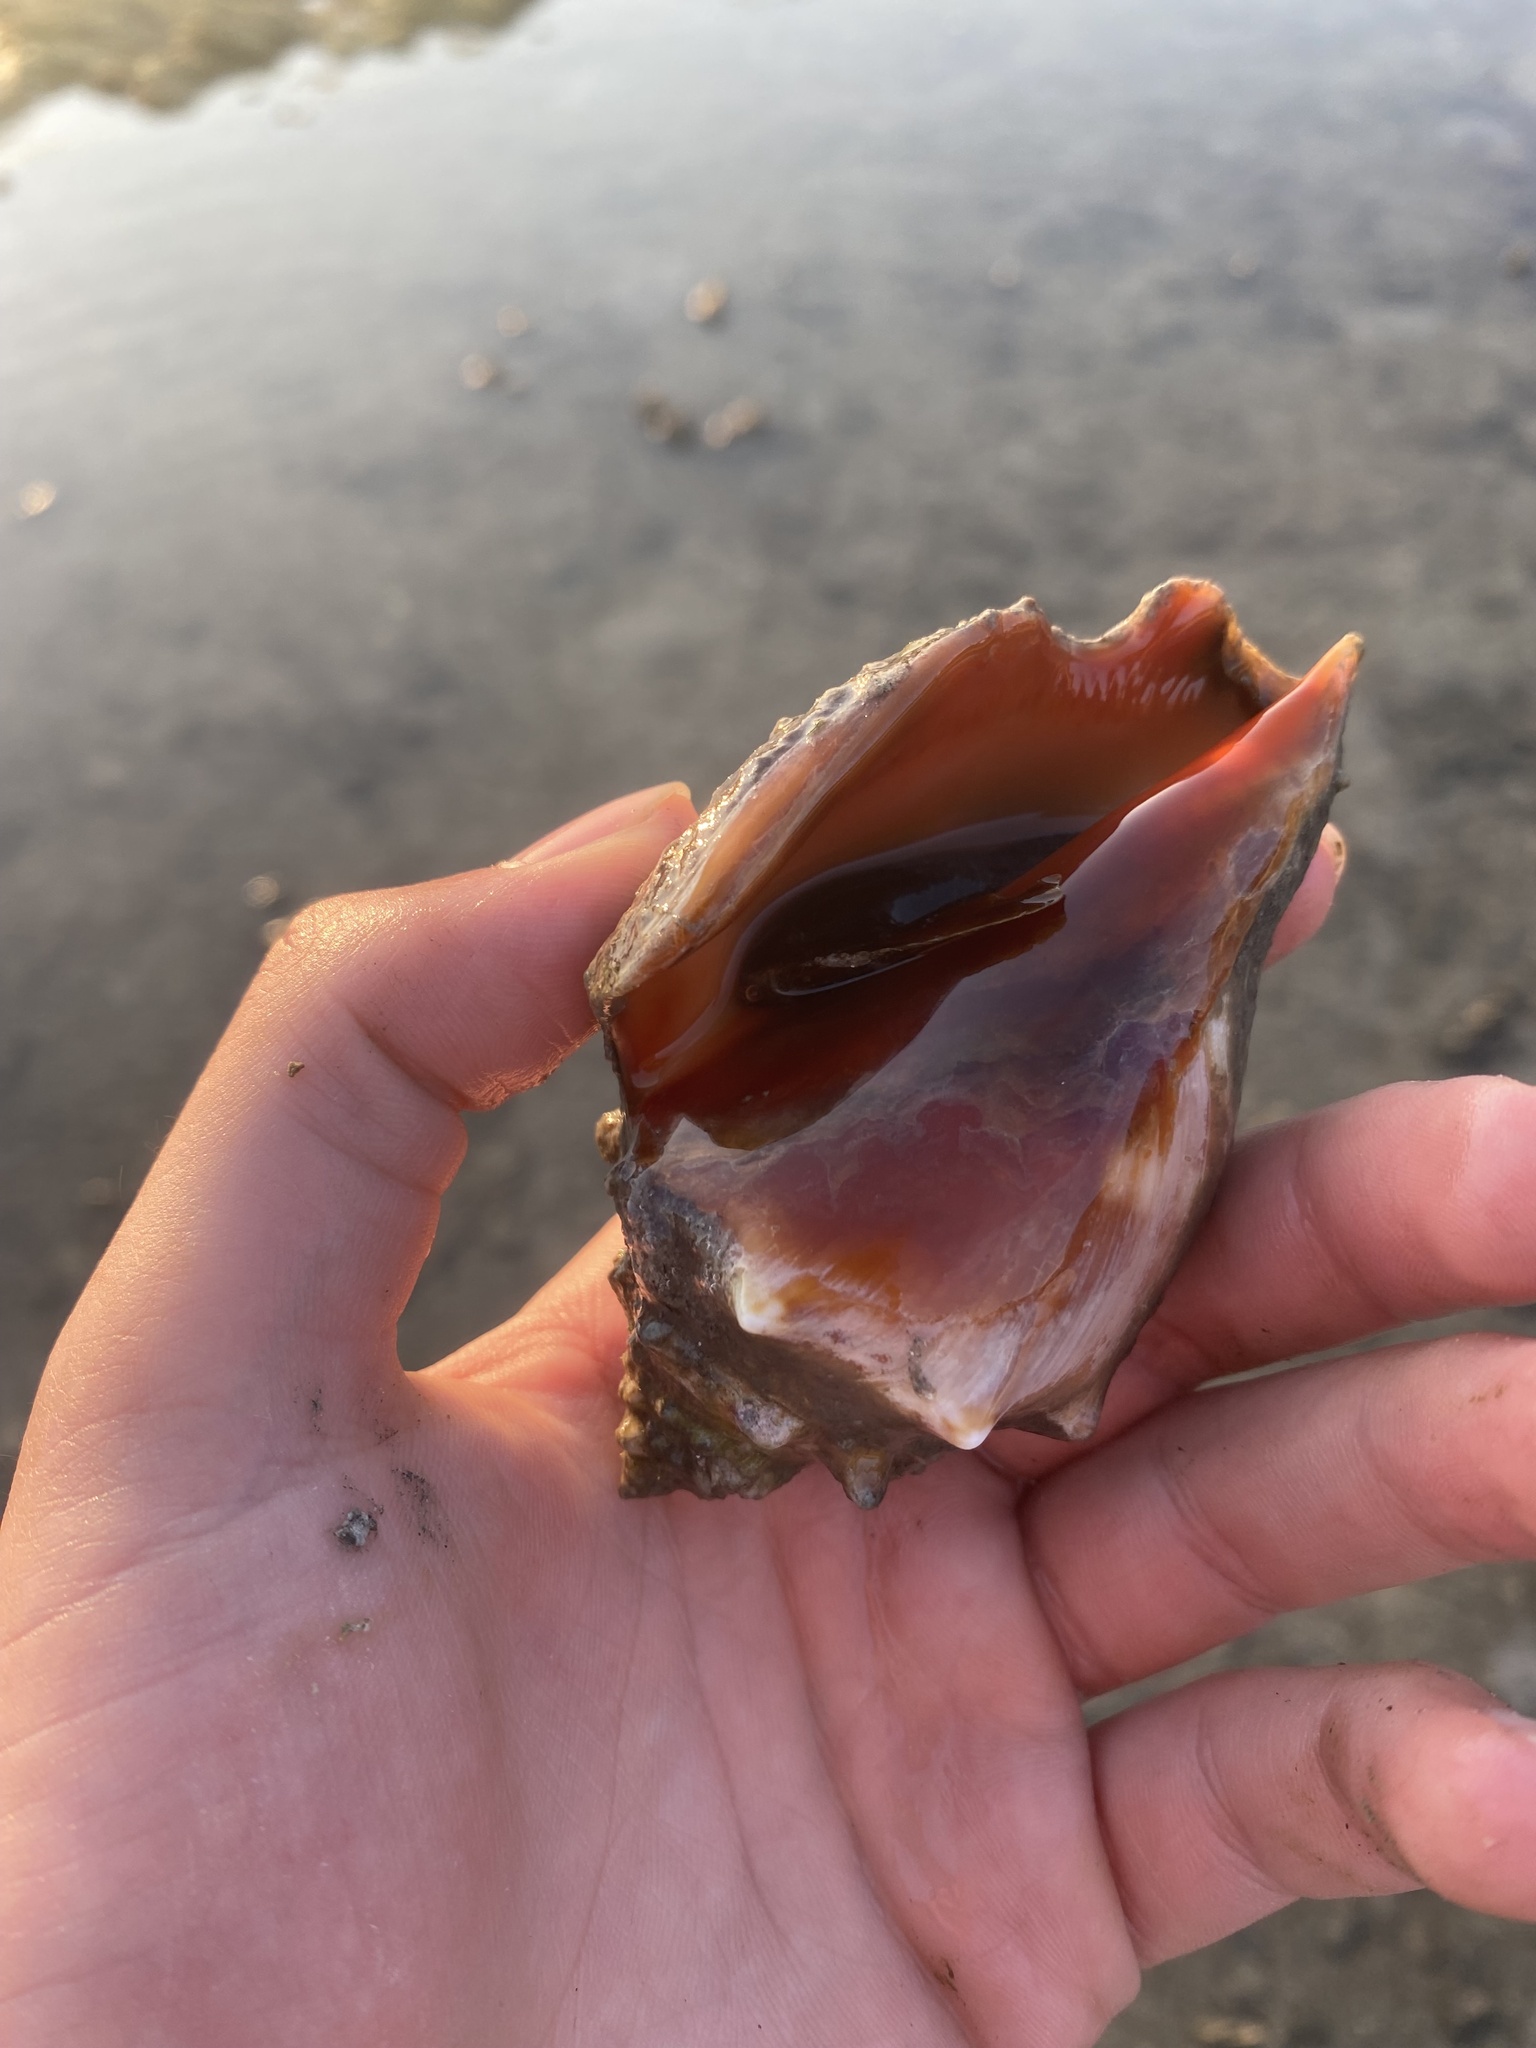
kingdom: Animalia
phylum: Mollusca
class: Gastropoda
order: Littorinimorpha
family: Strombidae
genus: Strombus
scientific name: Strombus alatus
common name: Florida fighting conch
